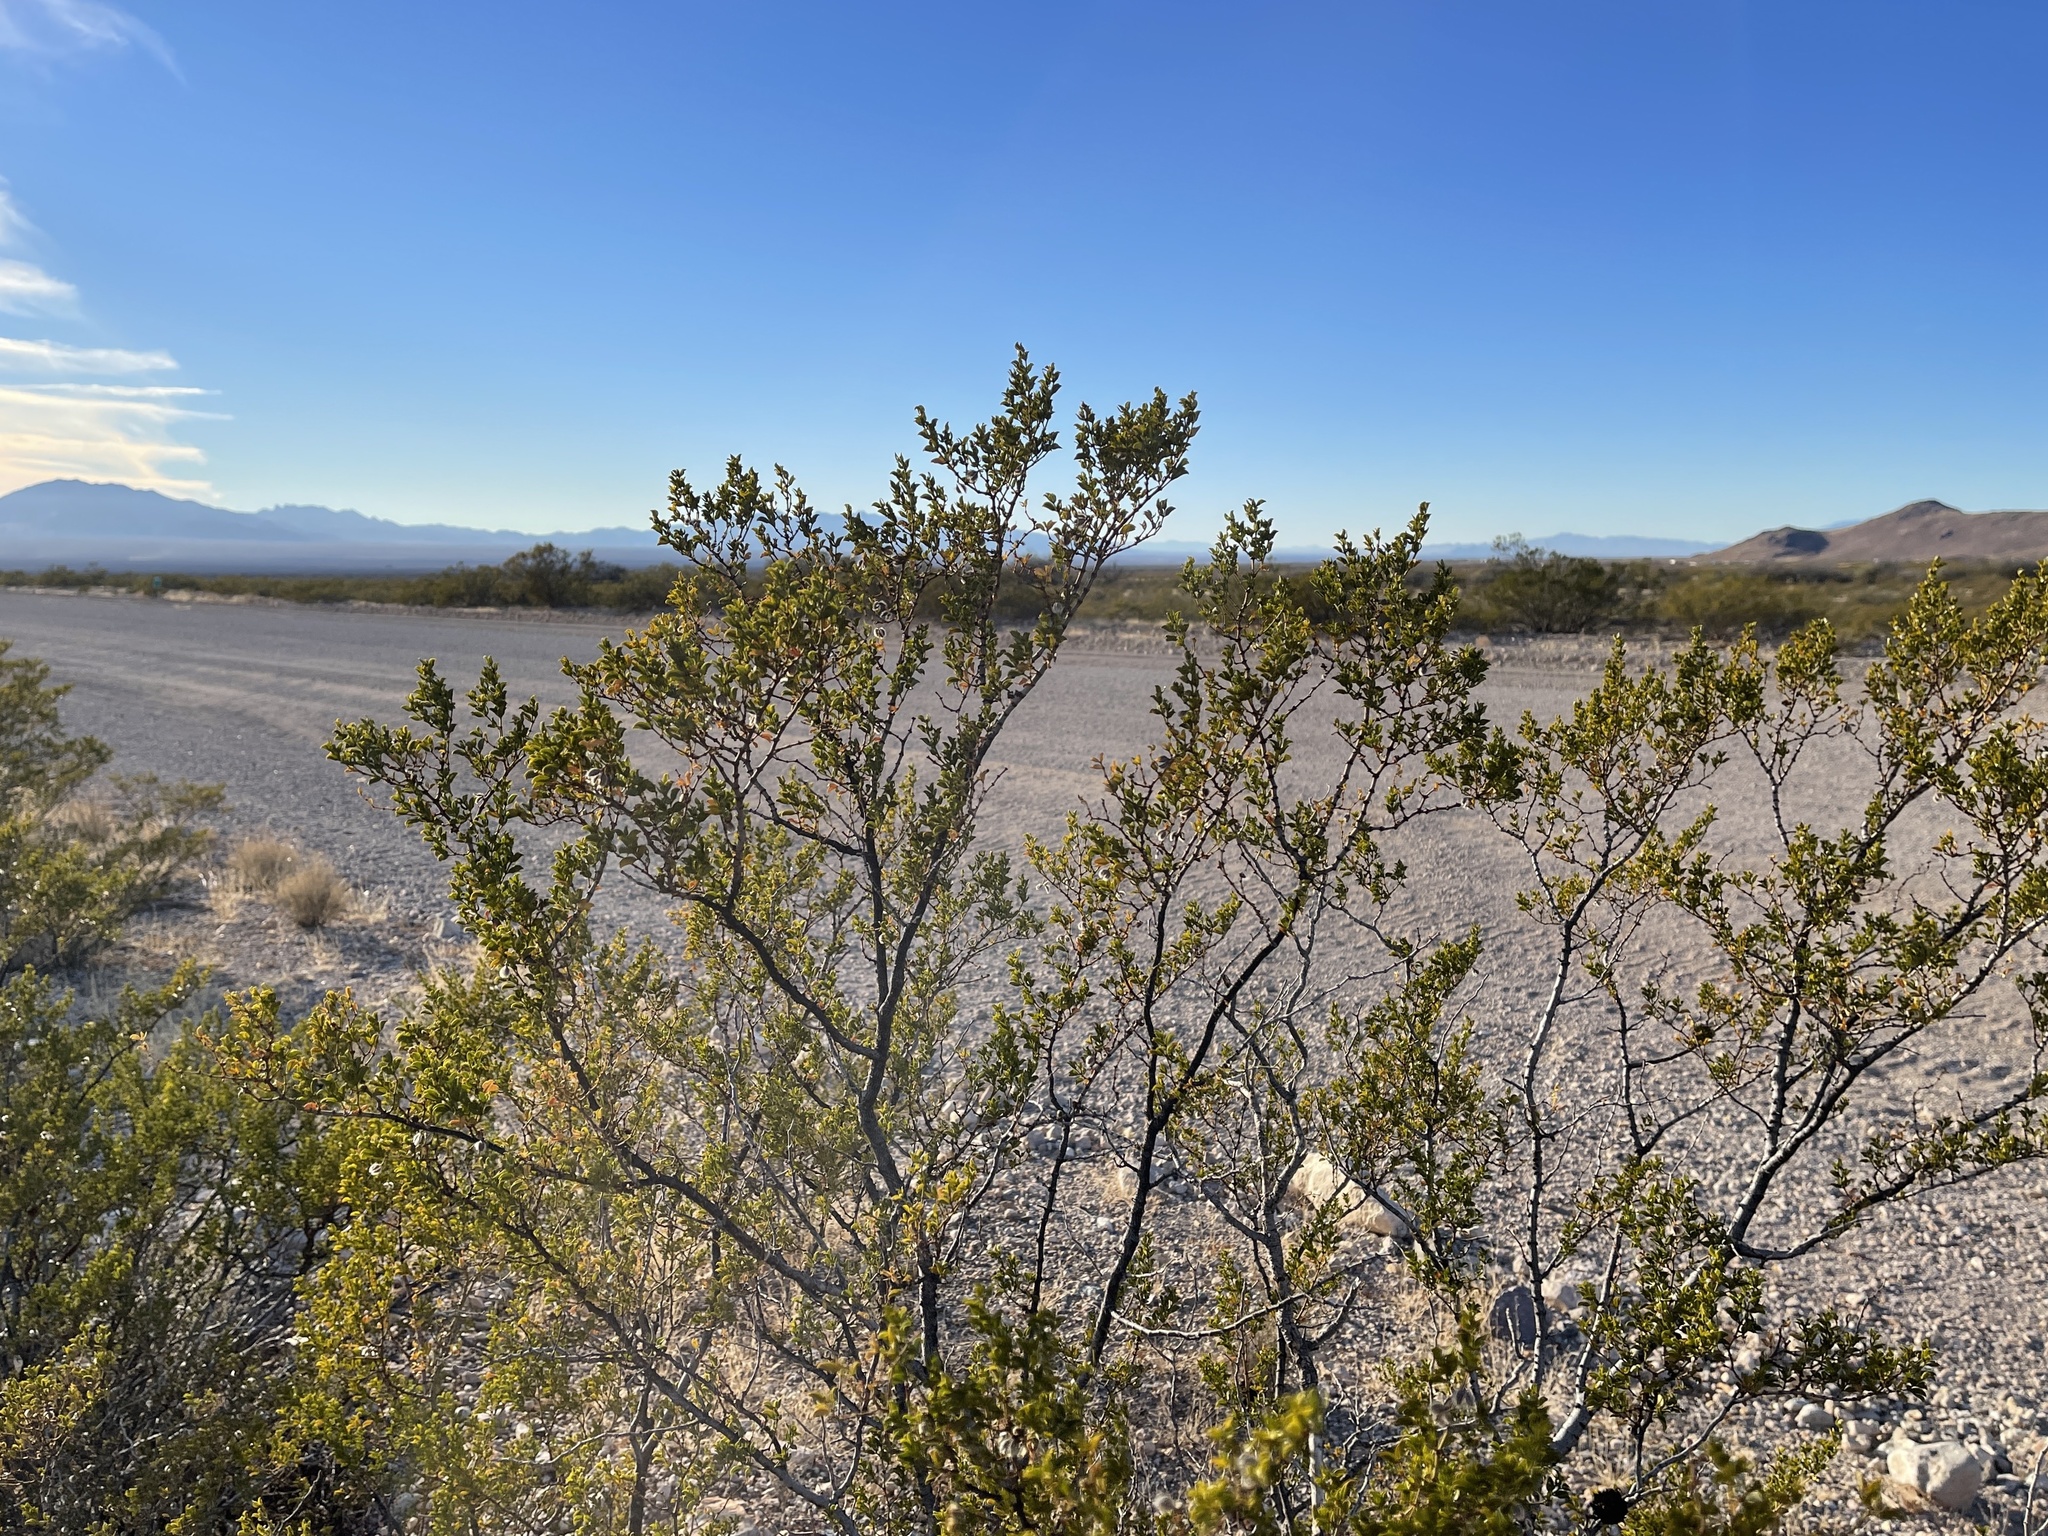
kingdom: Plantae
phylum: Tracheophyta
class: Magnoliopsida
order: Zygophyllales
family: Zygophyllaceae
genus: Larrea
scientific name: Larrea tridentata
